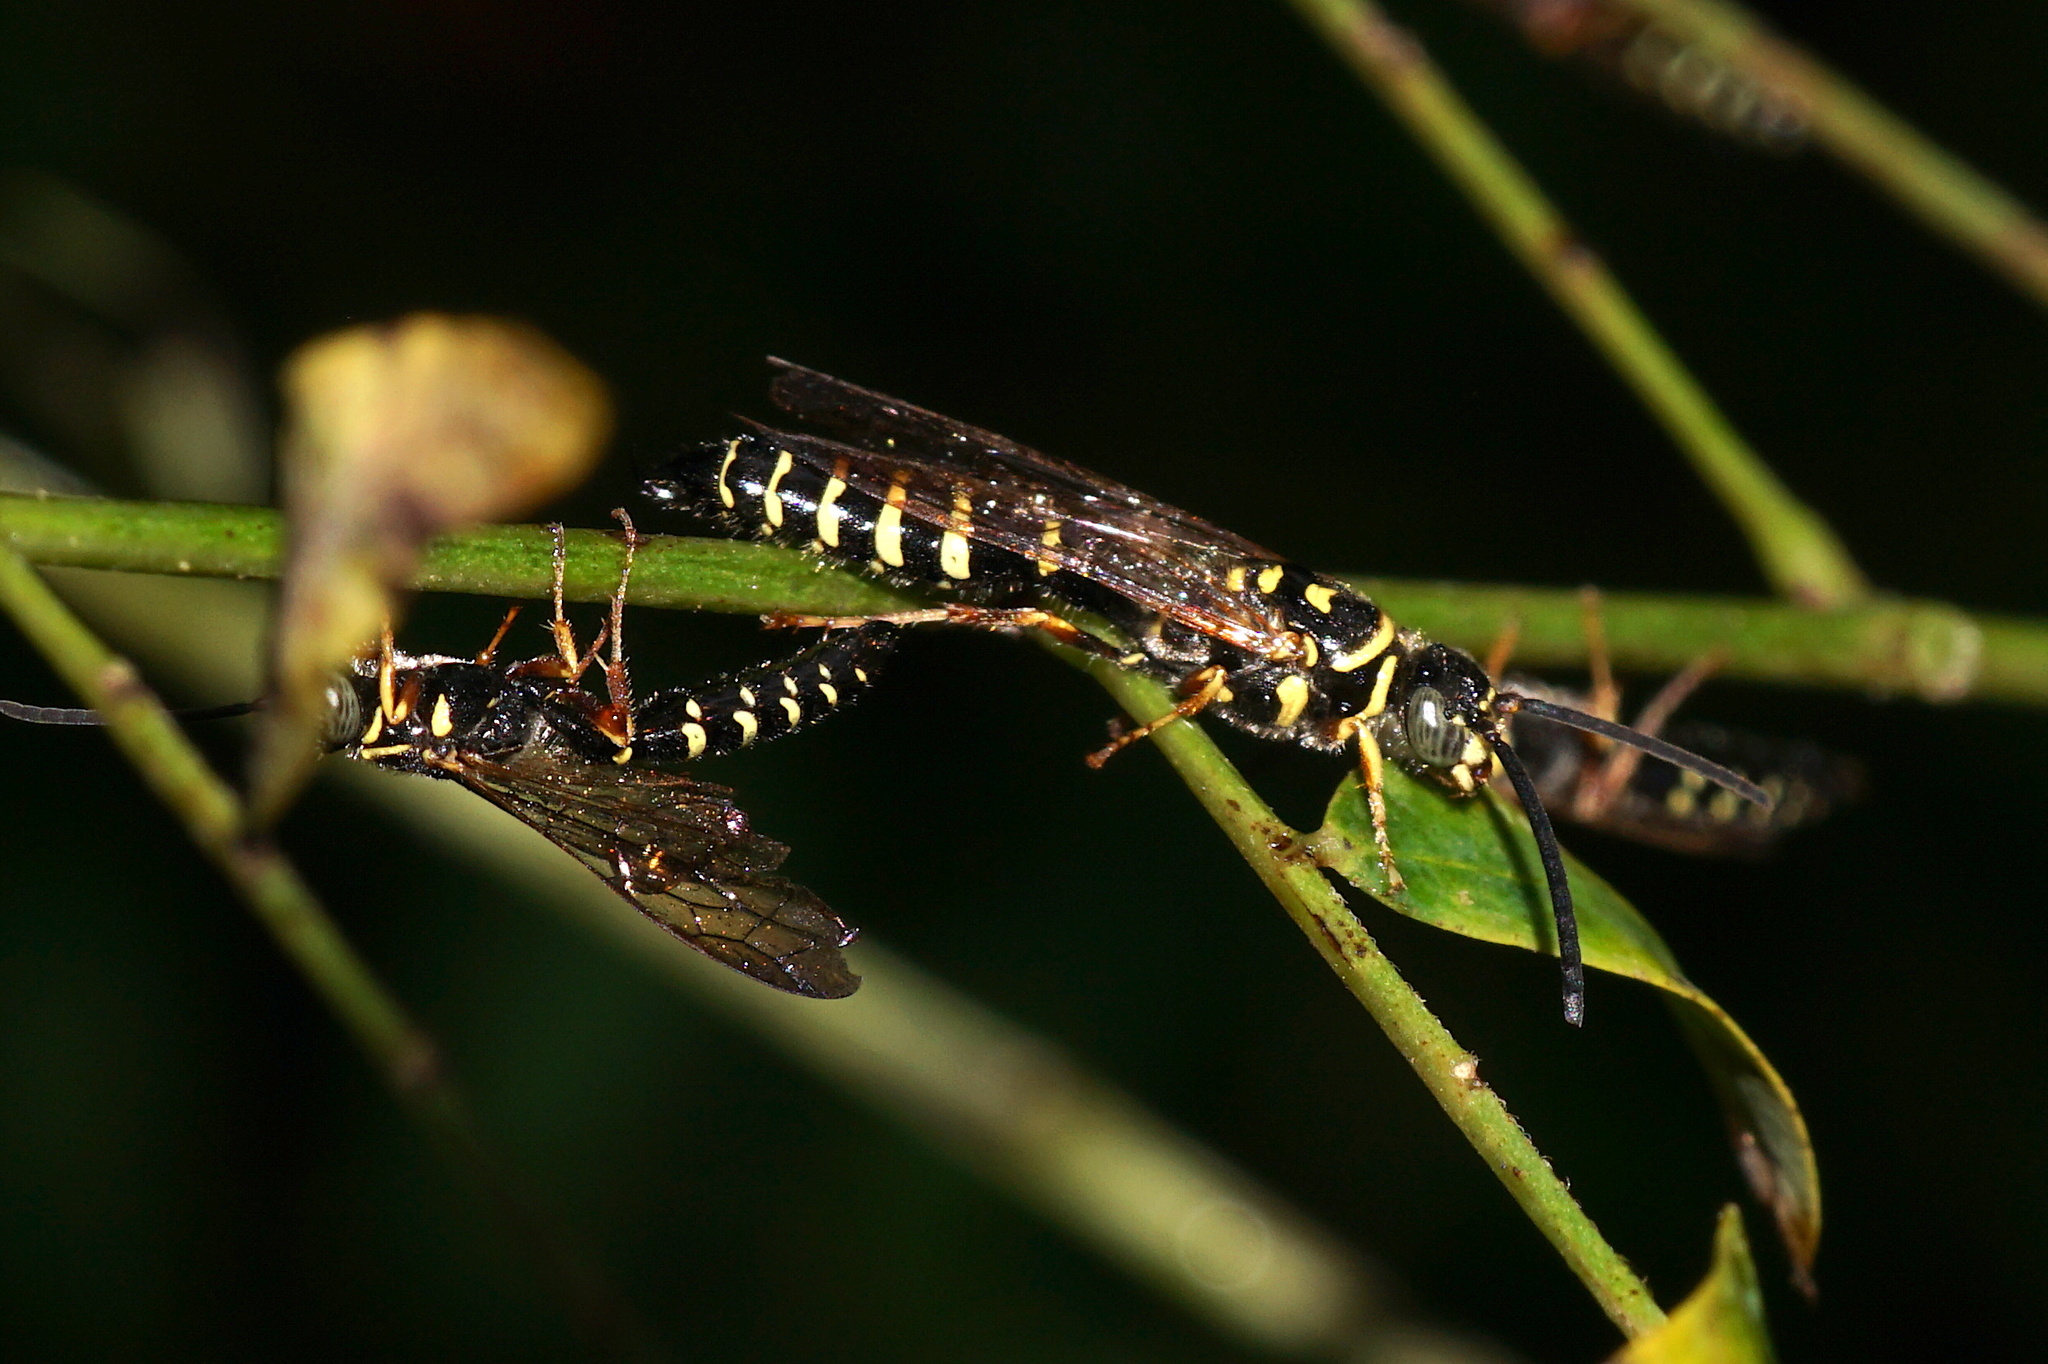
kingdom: Animalia
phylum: Arthropoda
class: Insecta
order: Hymenoptera
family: Tiphiidae
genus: Myzinum
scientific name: Myzinum carolinianum
